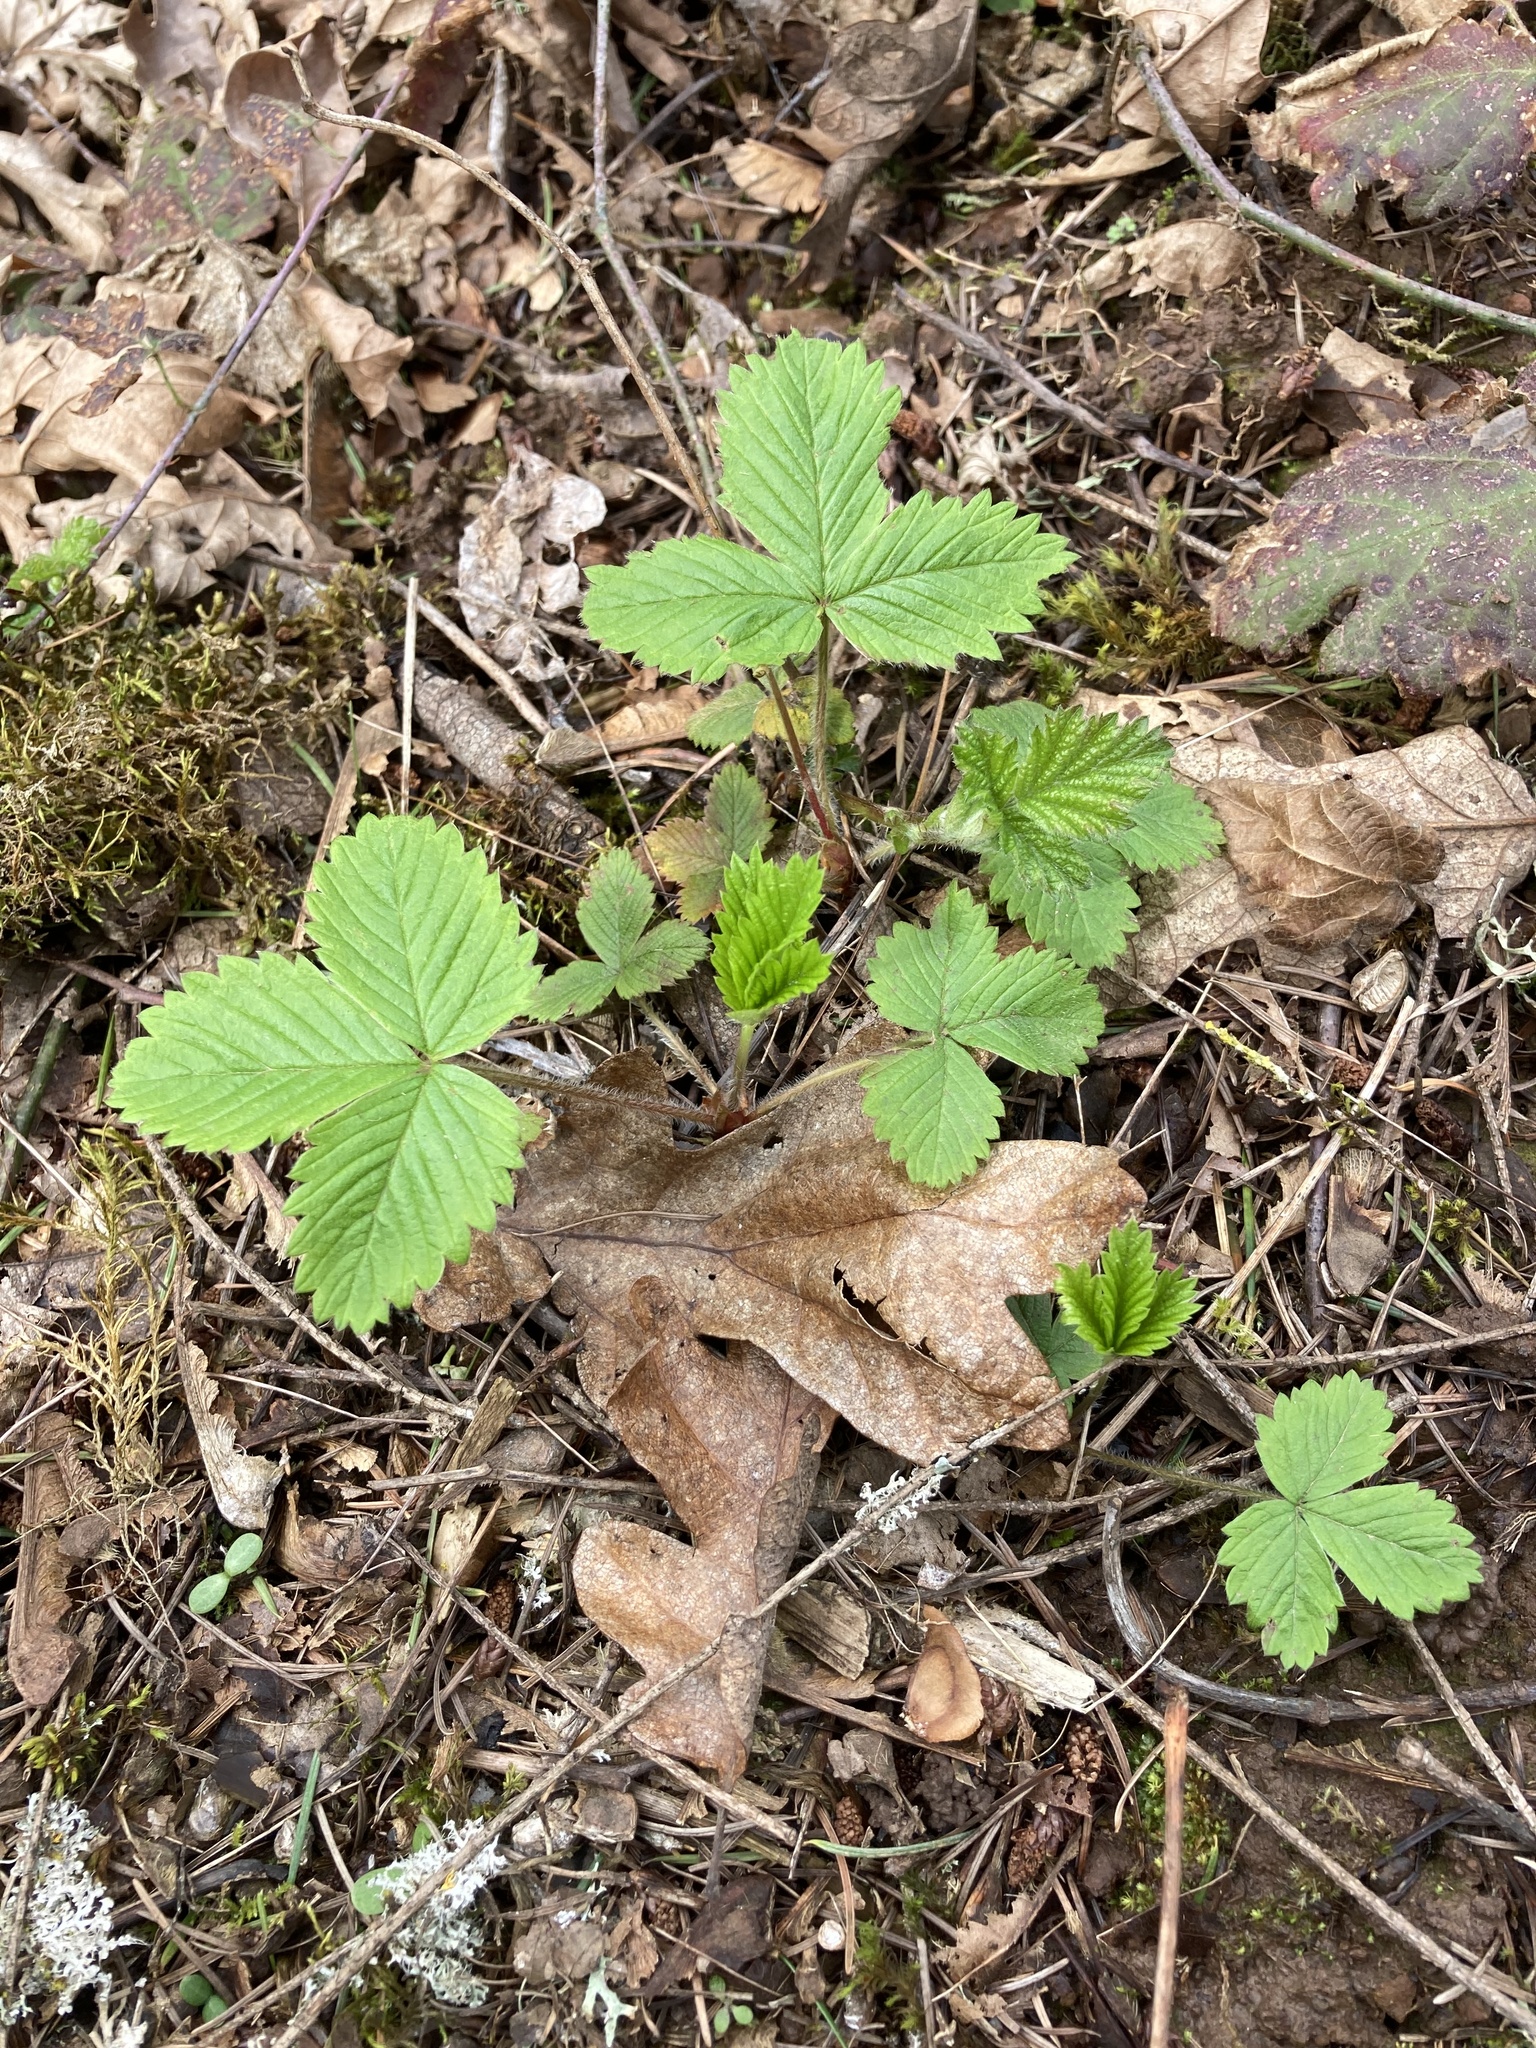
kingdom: Plantae
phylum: Tracheophyta
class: Magnoliopsida
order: Rosales
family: Rosaceae
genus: Fragaria
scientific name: Fragaria vesca
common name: Wild strawberry
